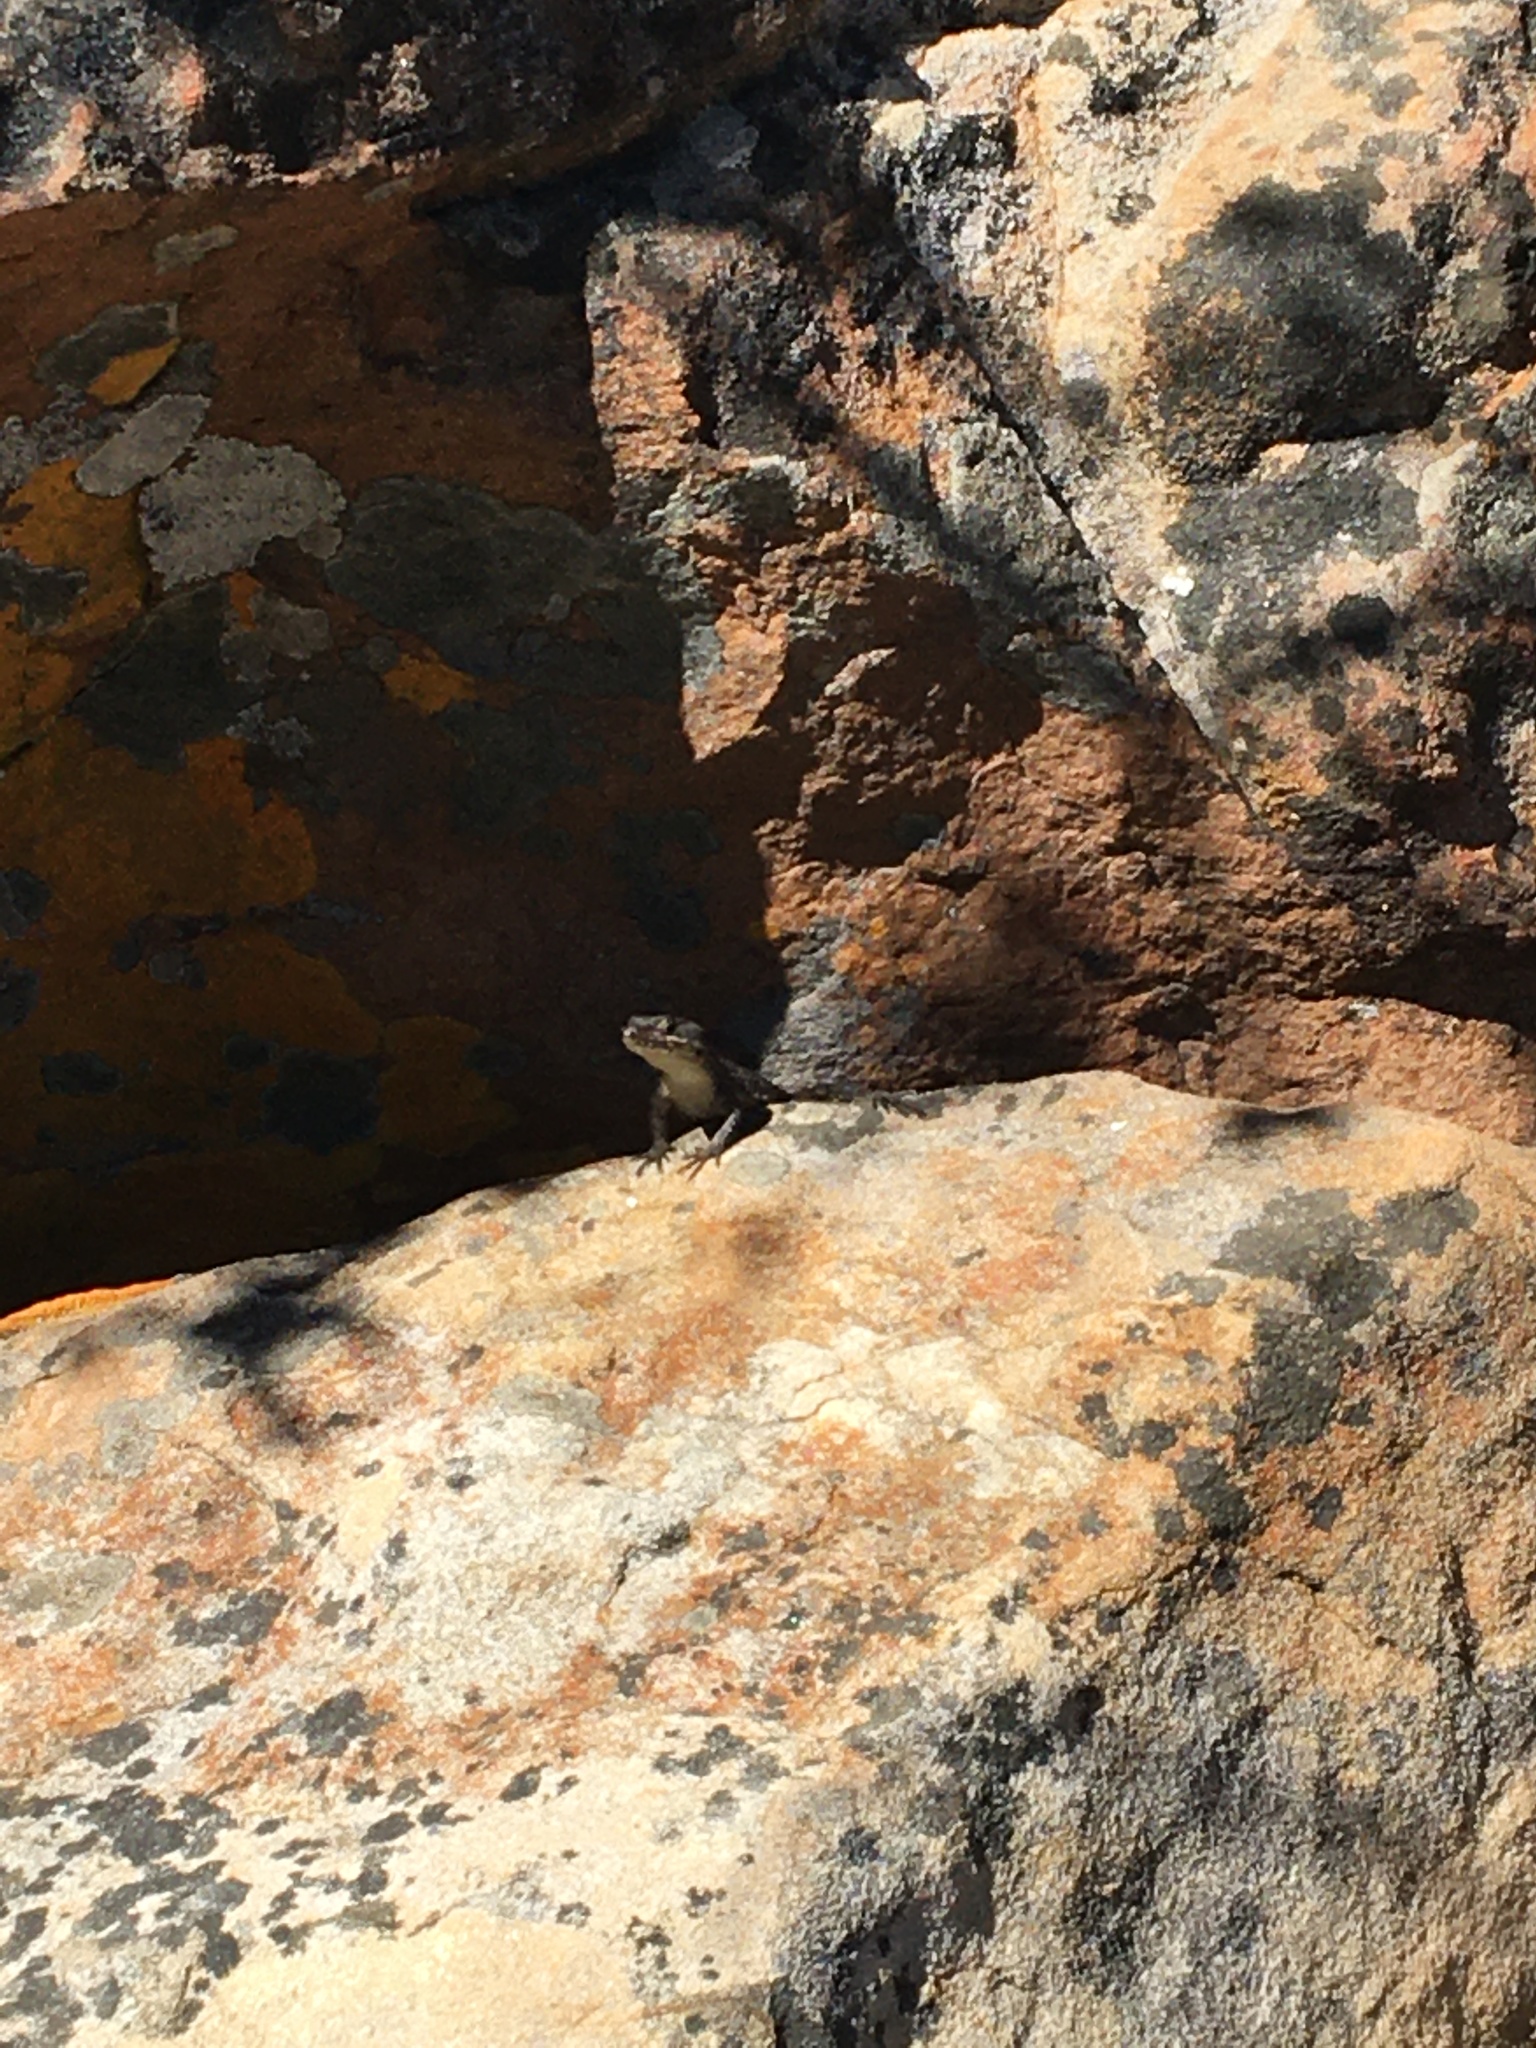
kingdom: Animalia
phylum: Chordata
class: Squamata
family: Cordylidae
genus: Cordylus
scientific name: Cordylus niger
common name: Black girdled lizard
